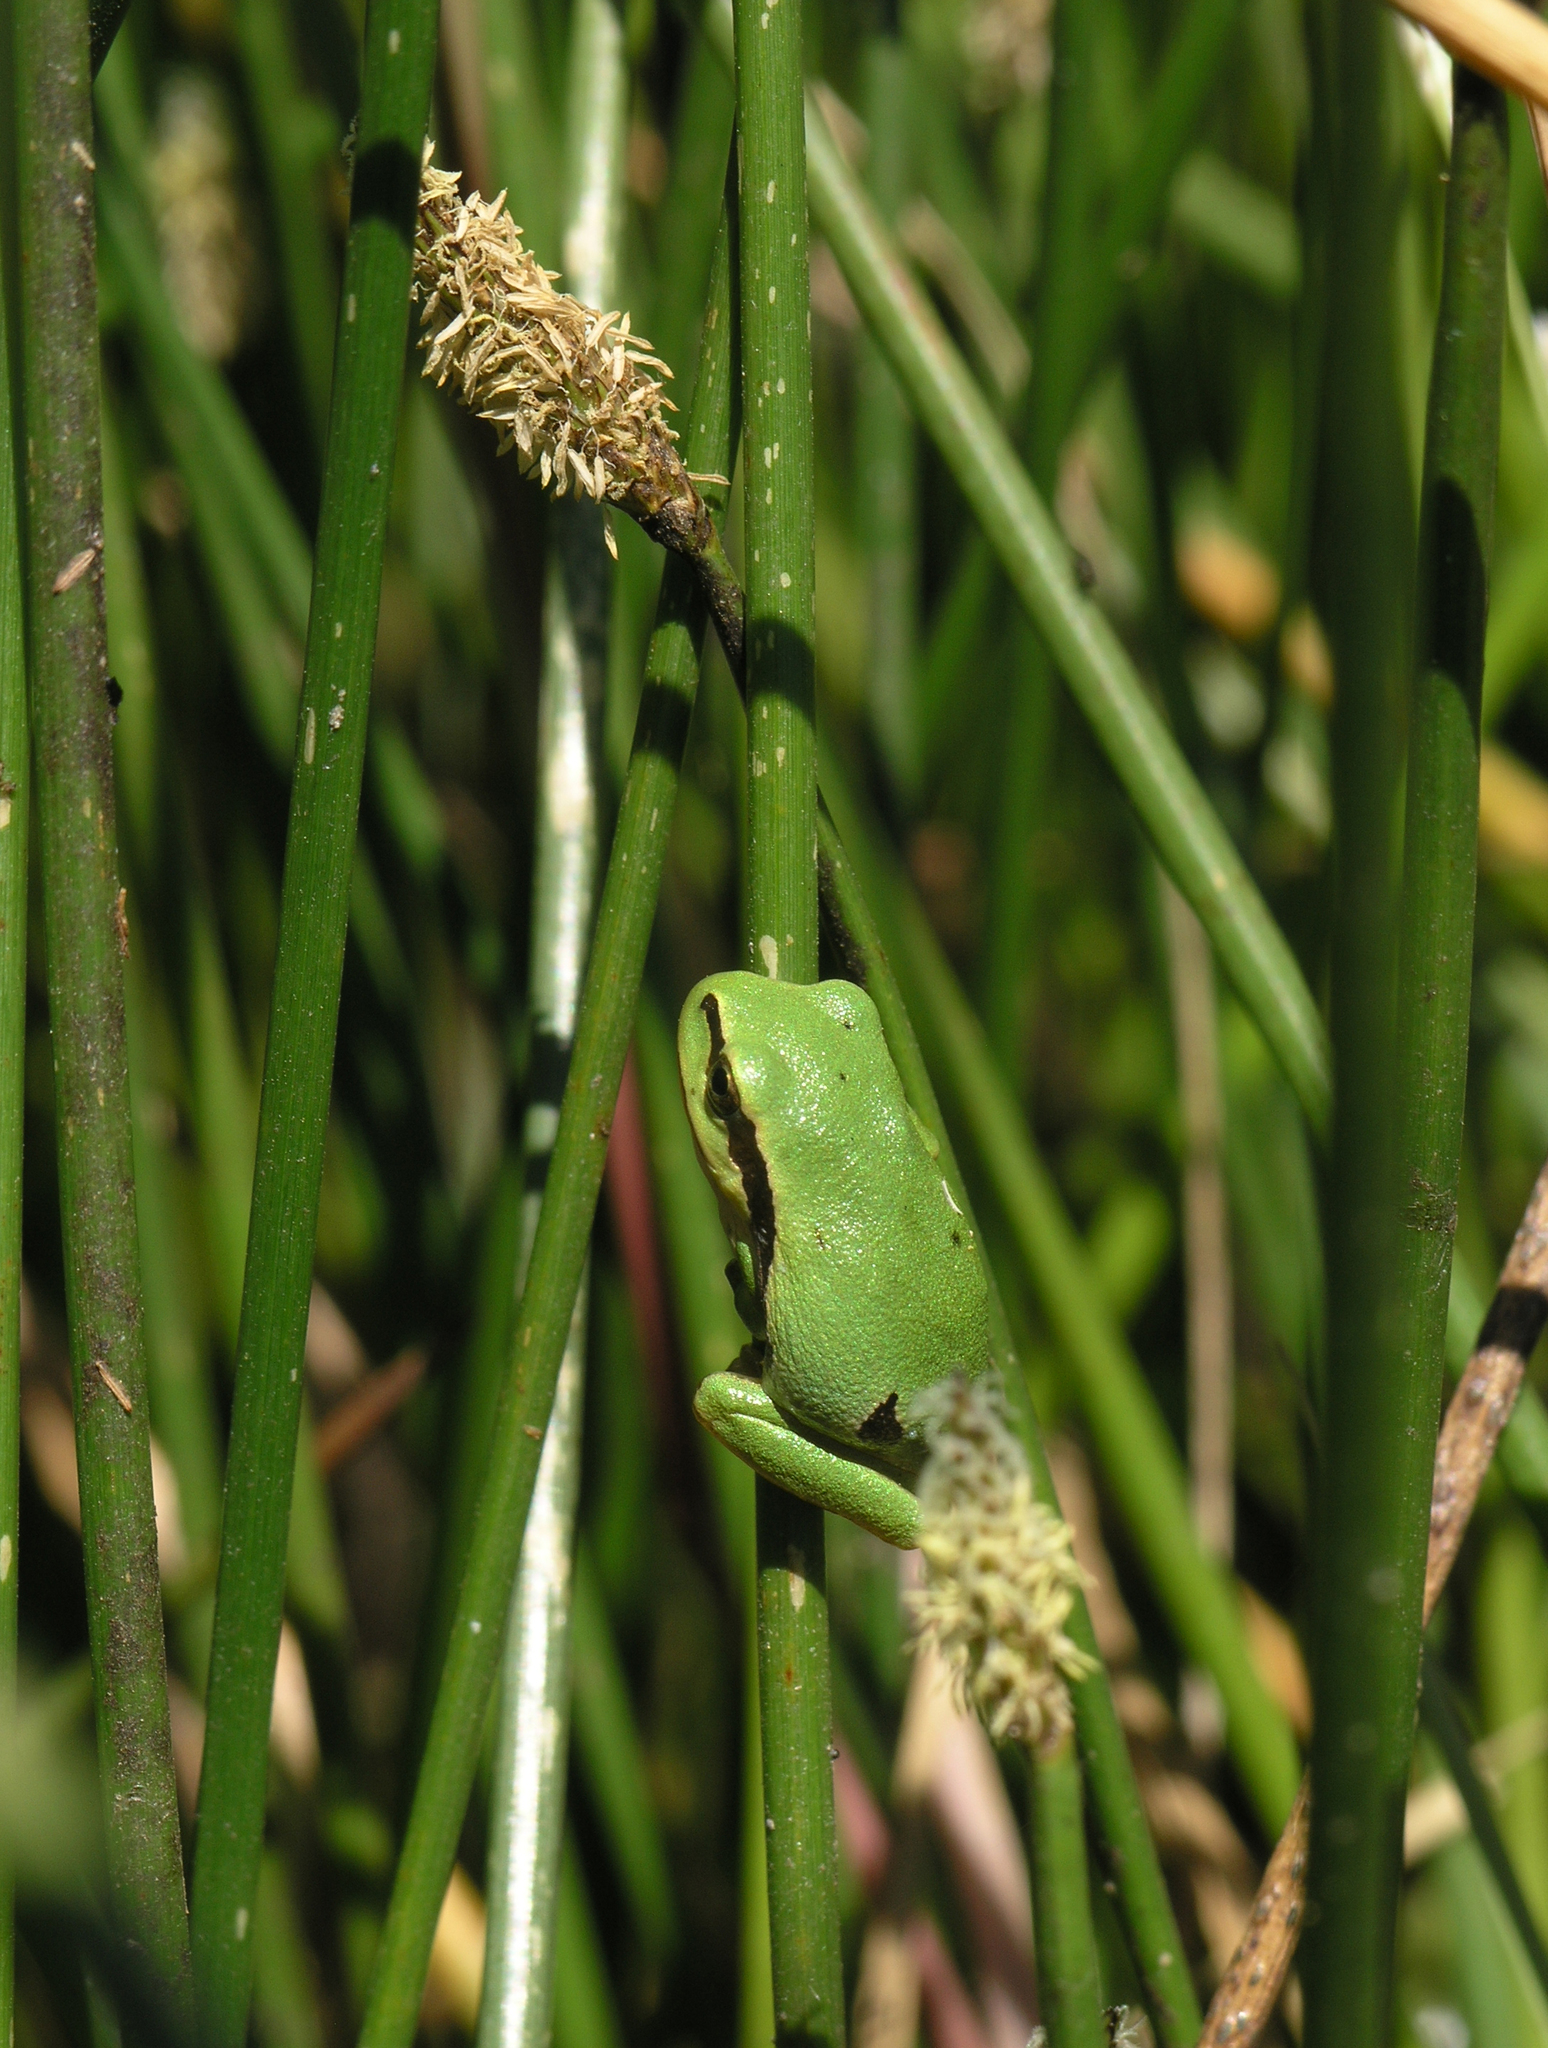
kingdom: Animalia
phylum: Chordata
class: Amphibia
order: Anura
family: Hylidae
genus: Hyla
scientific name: Hyla molleri
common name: Iberian tree frog
